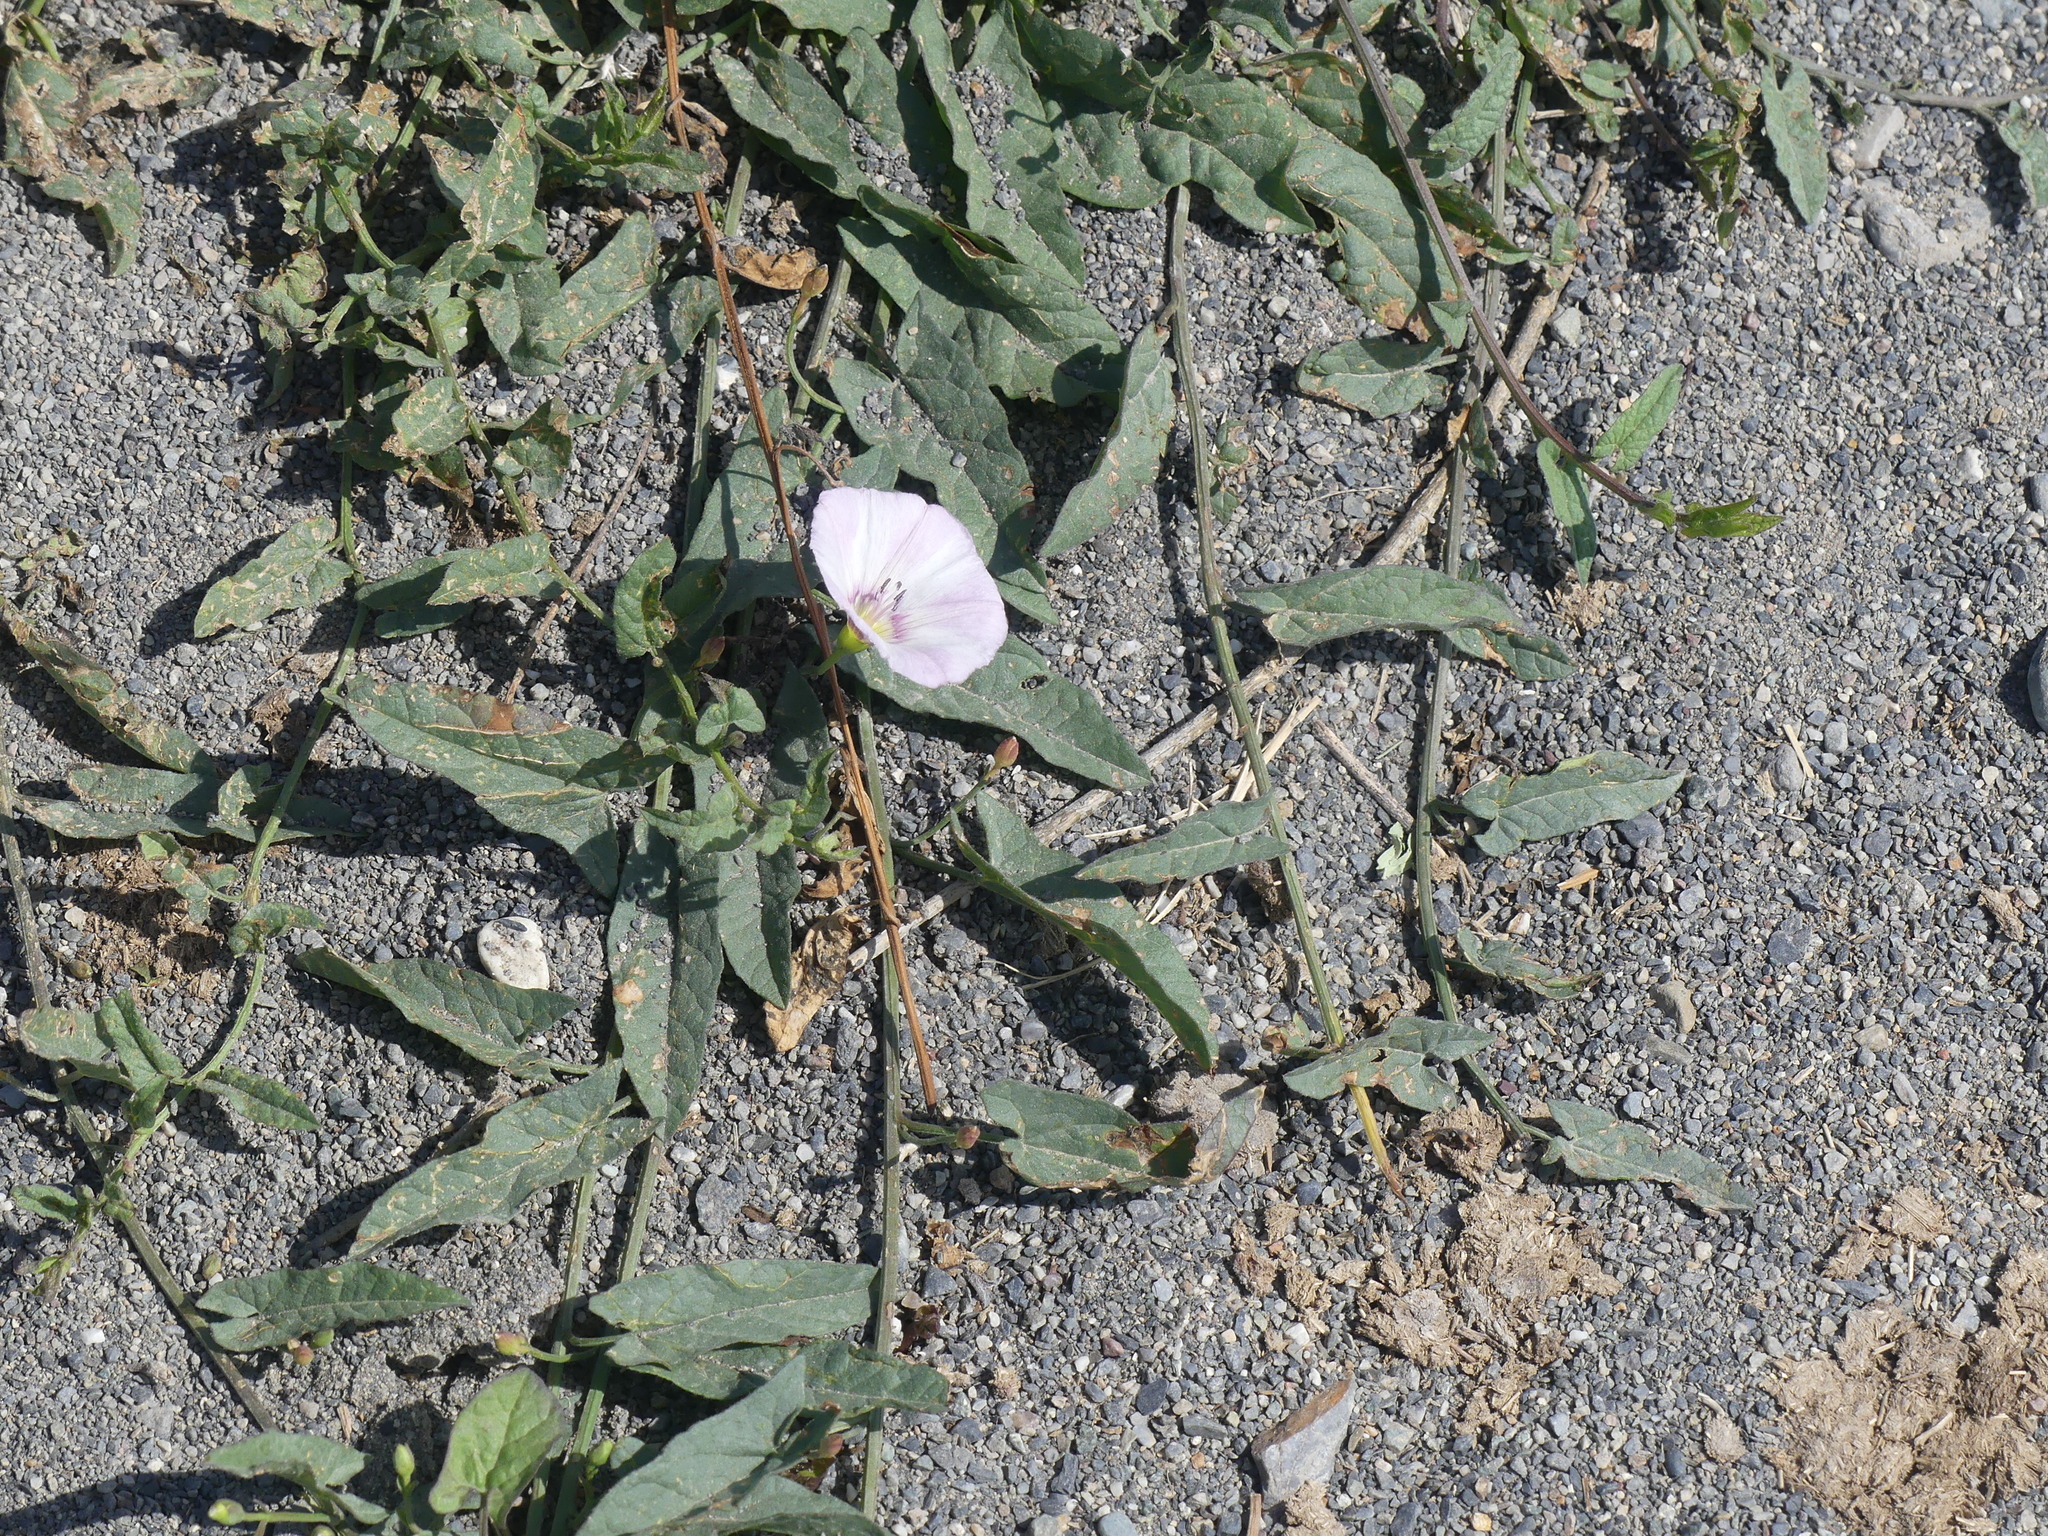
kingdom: Plantae
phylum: Tracheophyta
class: Magnoliopsida
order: Solanales
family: Convolvulaceae
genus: Convolvulus
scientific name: Convolvulus arvensis
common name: Field bindweed
